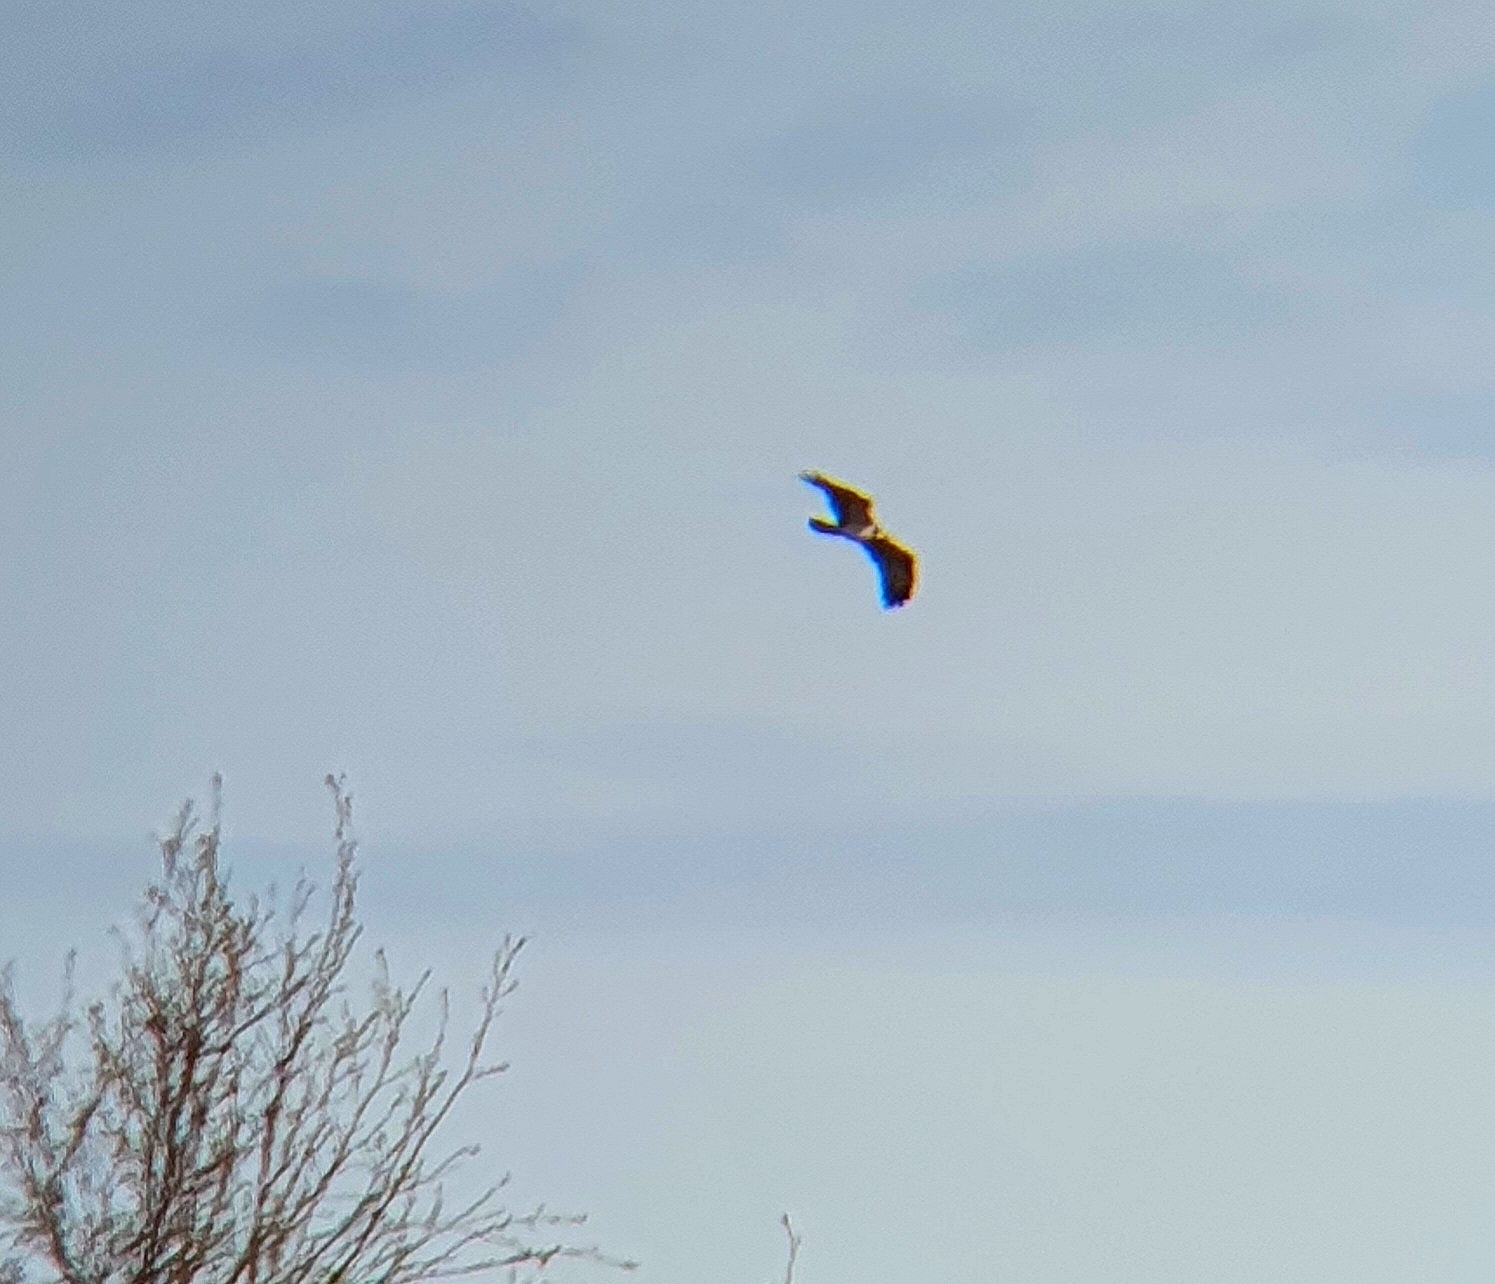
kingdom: Animalia
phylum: Chordata
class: Aves
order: Accipitriformes
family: Pandionidae
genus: Pandion
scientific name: Pandion haliaetus
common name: Osprey
